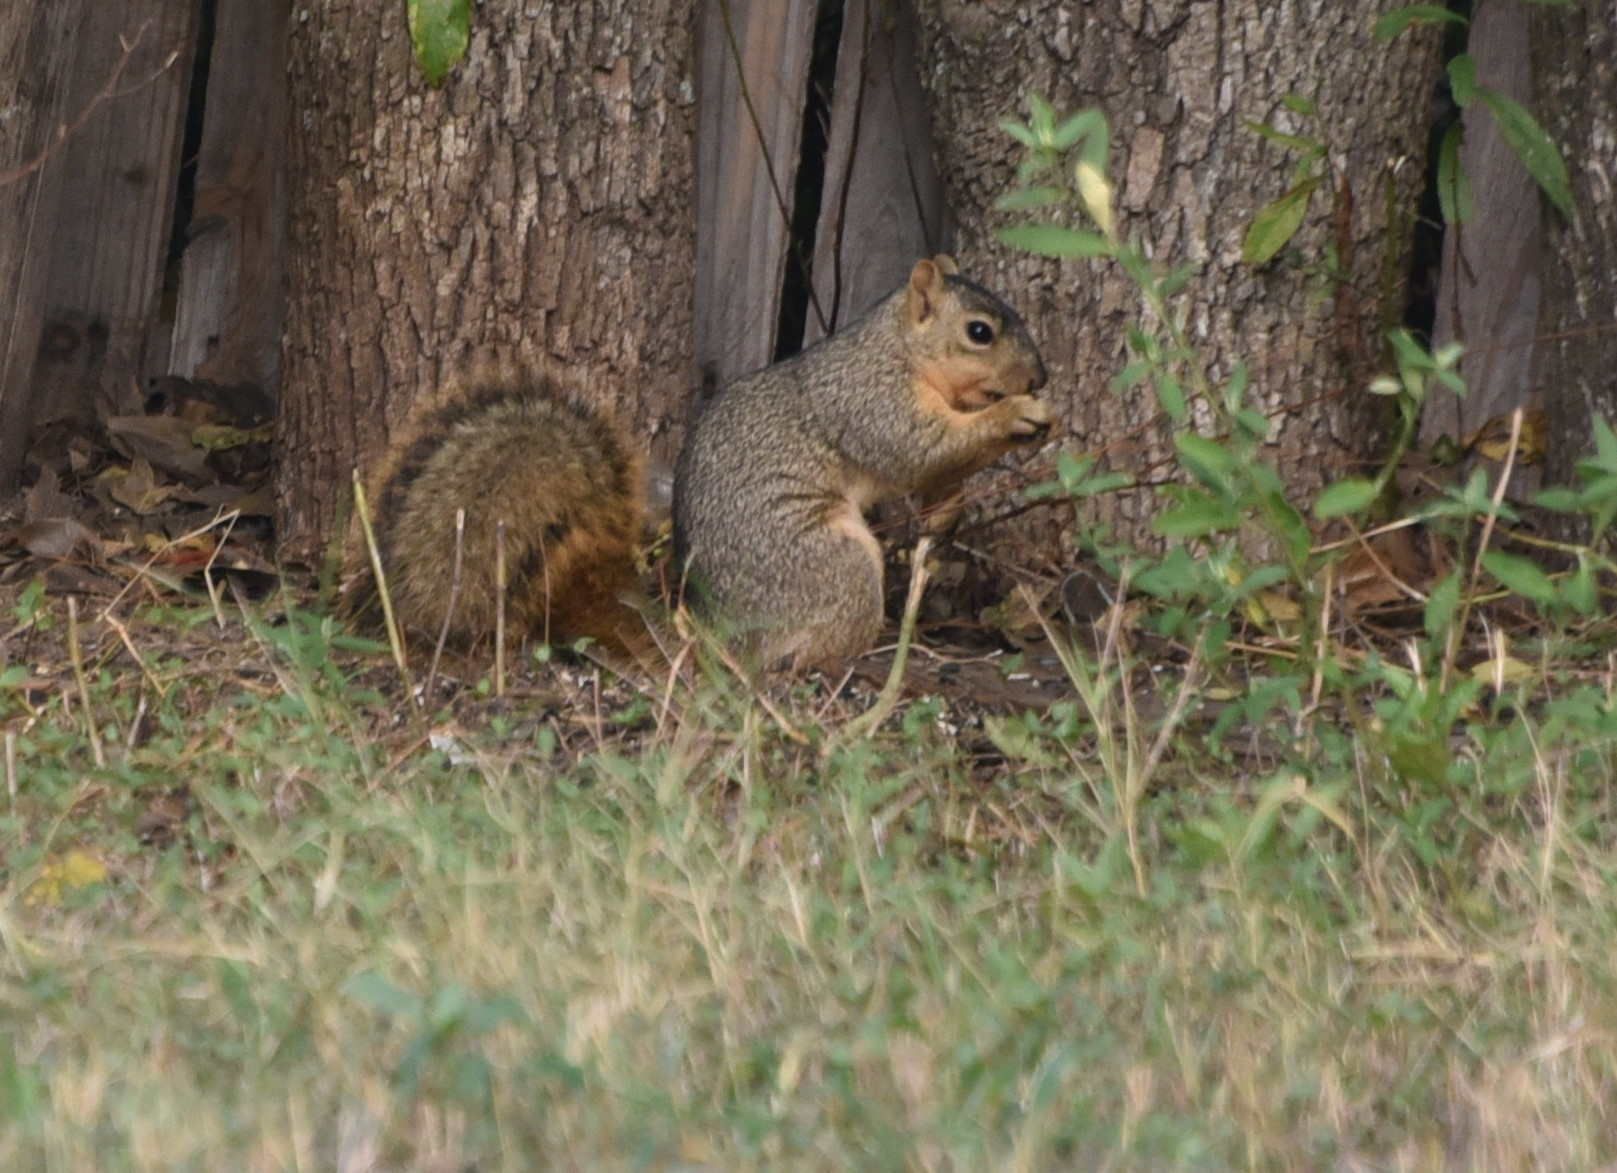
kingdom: Animalia
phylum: Chordata
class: Mammalia
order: Rodentia
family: Sciuridae
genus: Sciurus
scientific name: Sciurus niger
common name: Fox squirrel
